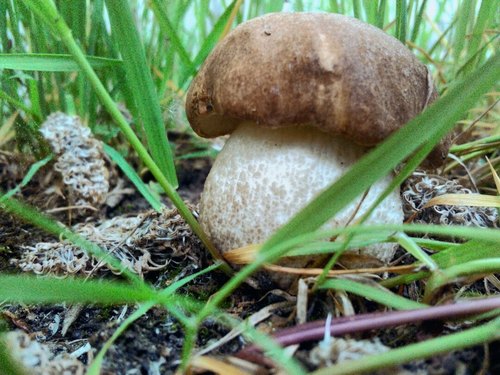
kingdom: Fungi
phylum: Basidiomycota
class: Agaricomycetes
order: Boletales
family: Boletaceae
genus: Leccinum
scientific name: Leccinum scabrum
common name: Blushing bolete
